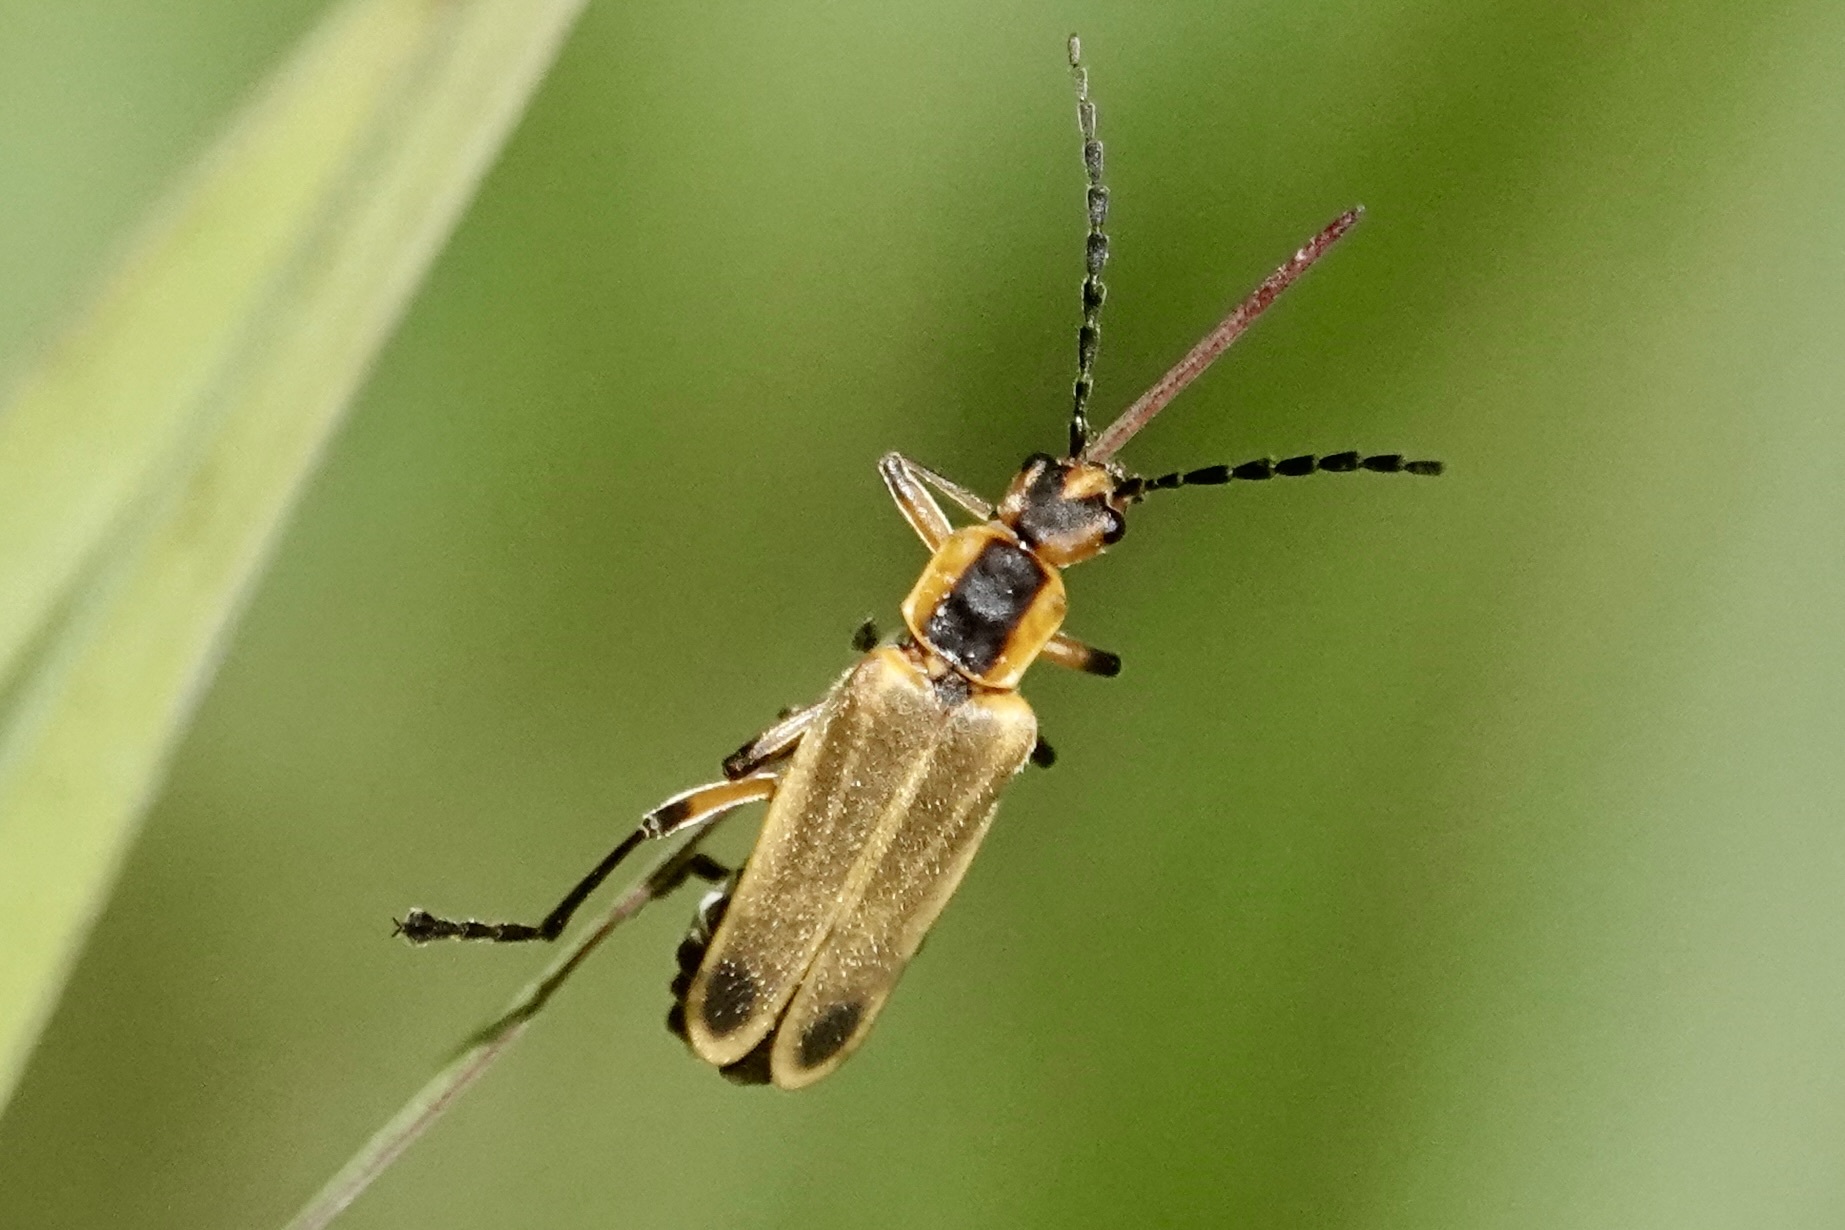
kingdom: Animalia
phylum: Arthropoda
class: Insecta
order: Coleoptera
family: Cantharidae
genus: Chauliognathus
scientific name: Chauliognathus marginatus
